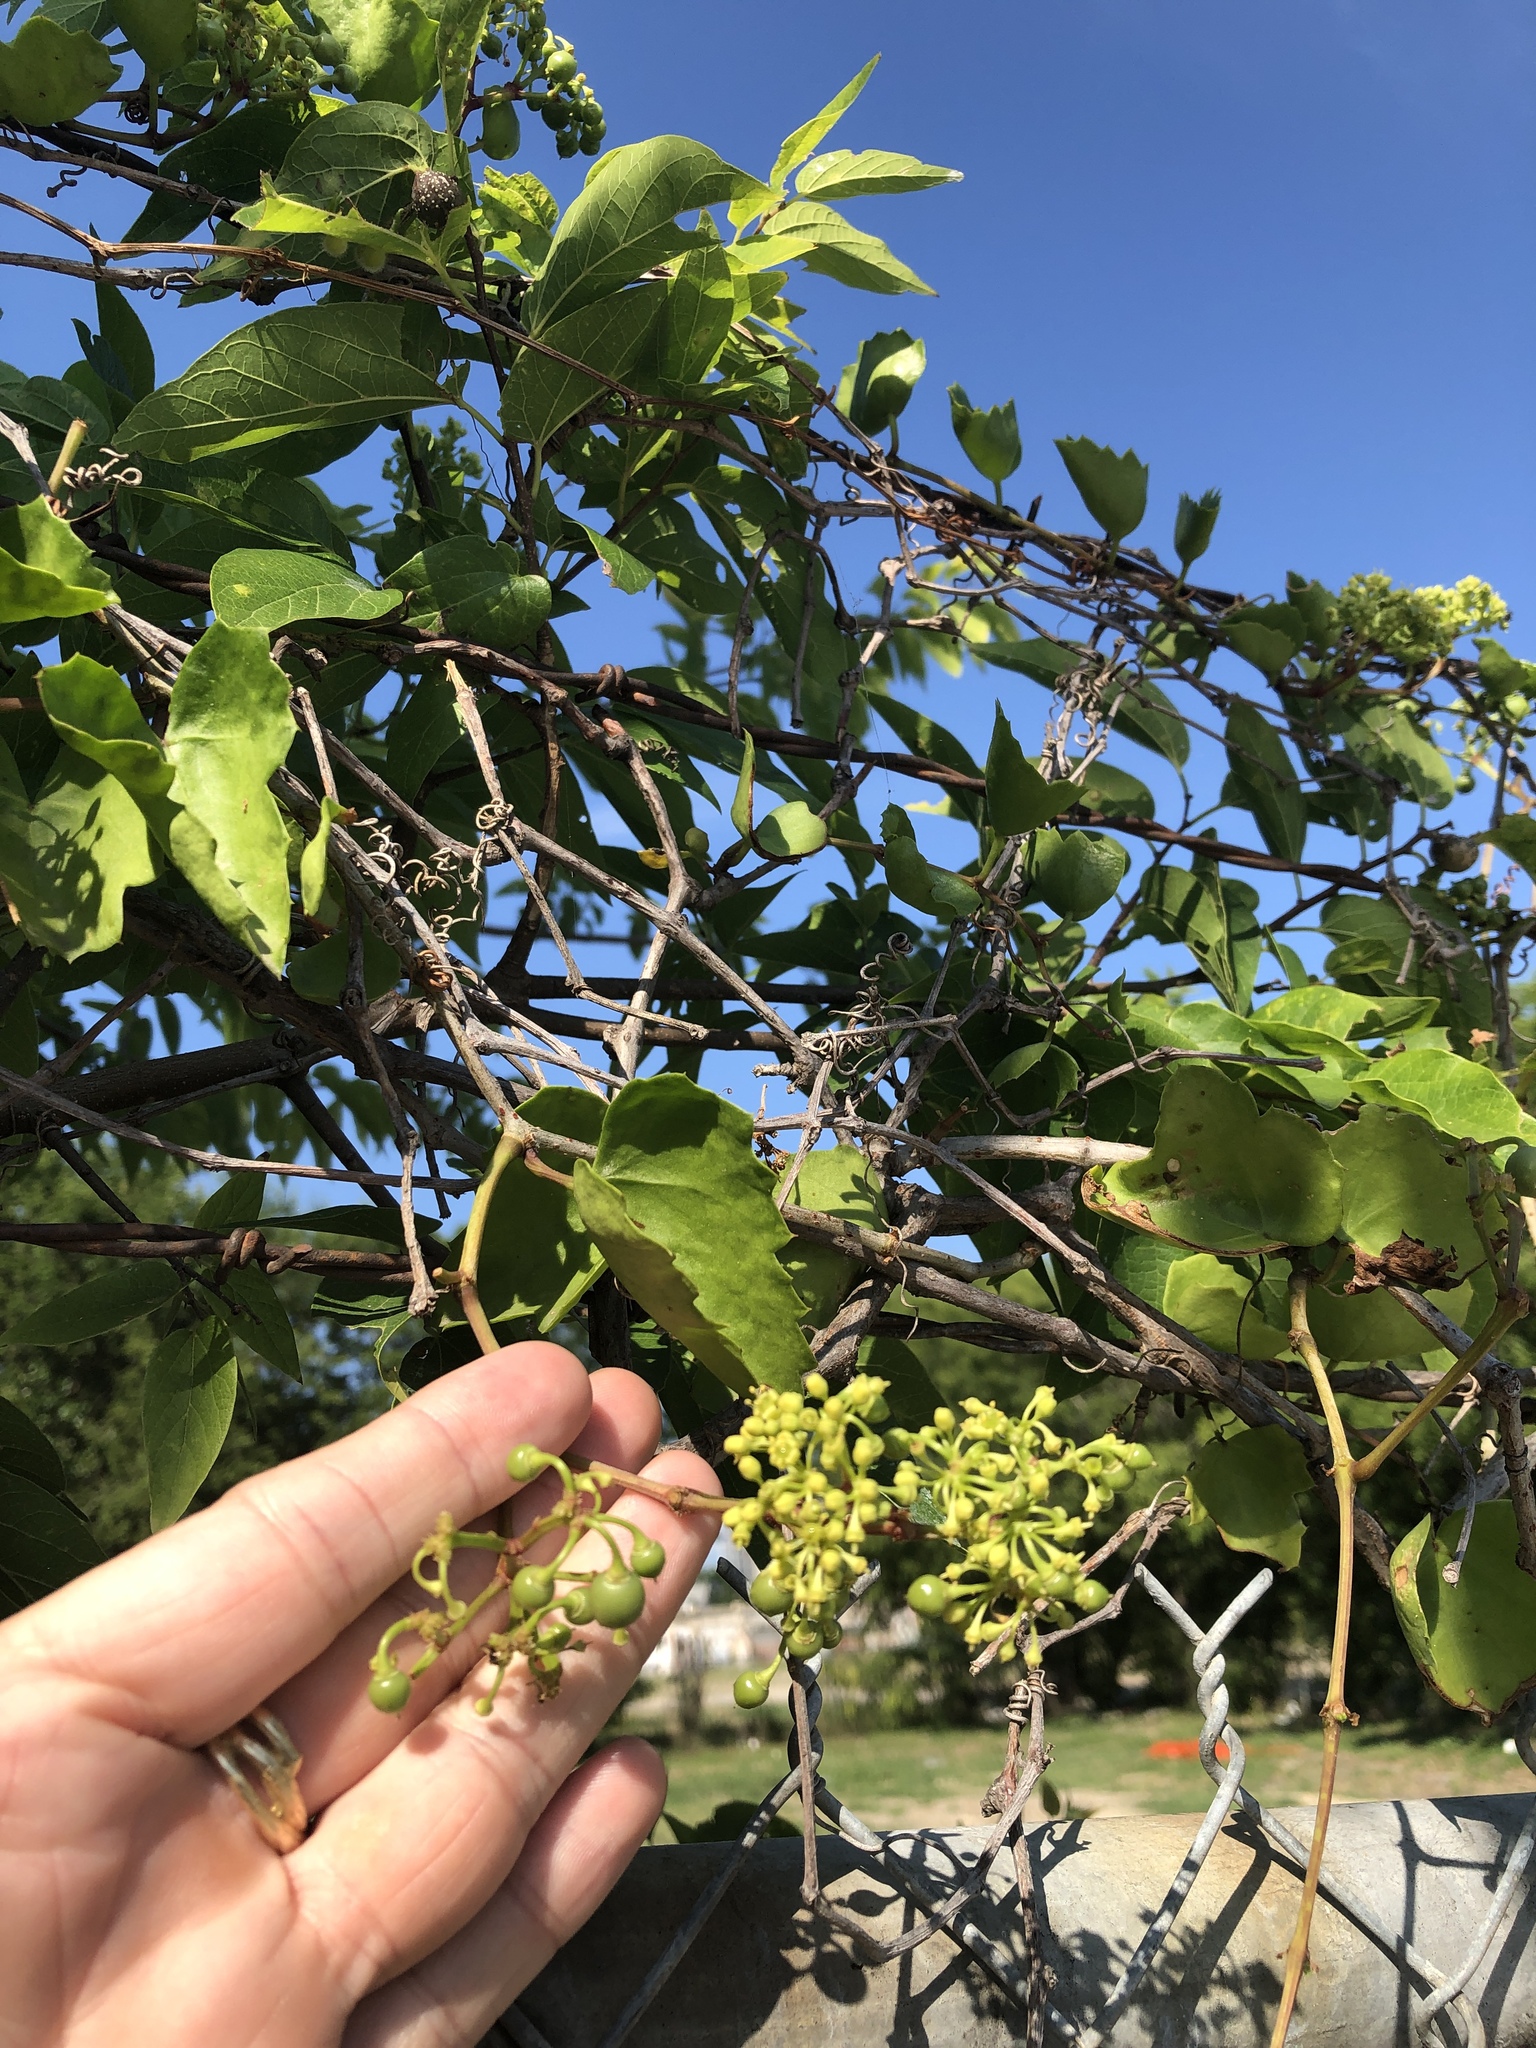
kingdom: Plantae
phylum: Tracheophyta
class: Magnoliopsida
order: Vitales
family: Vitaceae
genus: Cissus
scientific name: Cissus trifoliata
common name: Vine-sorrel
